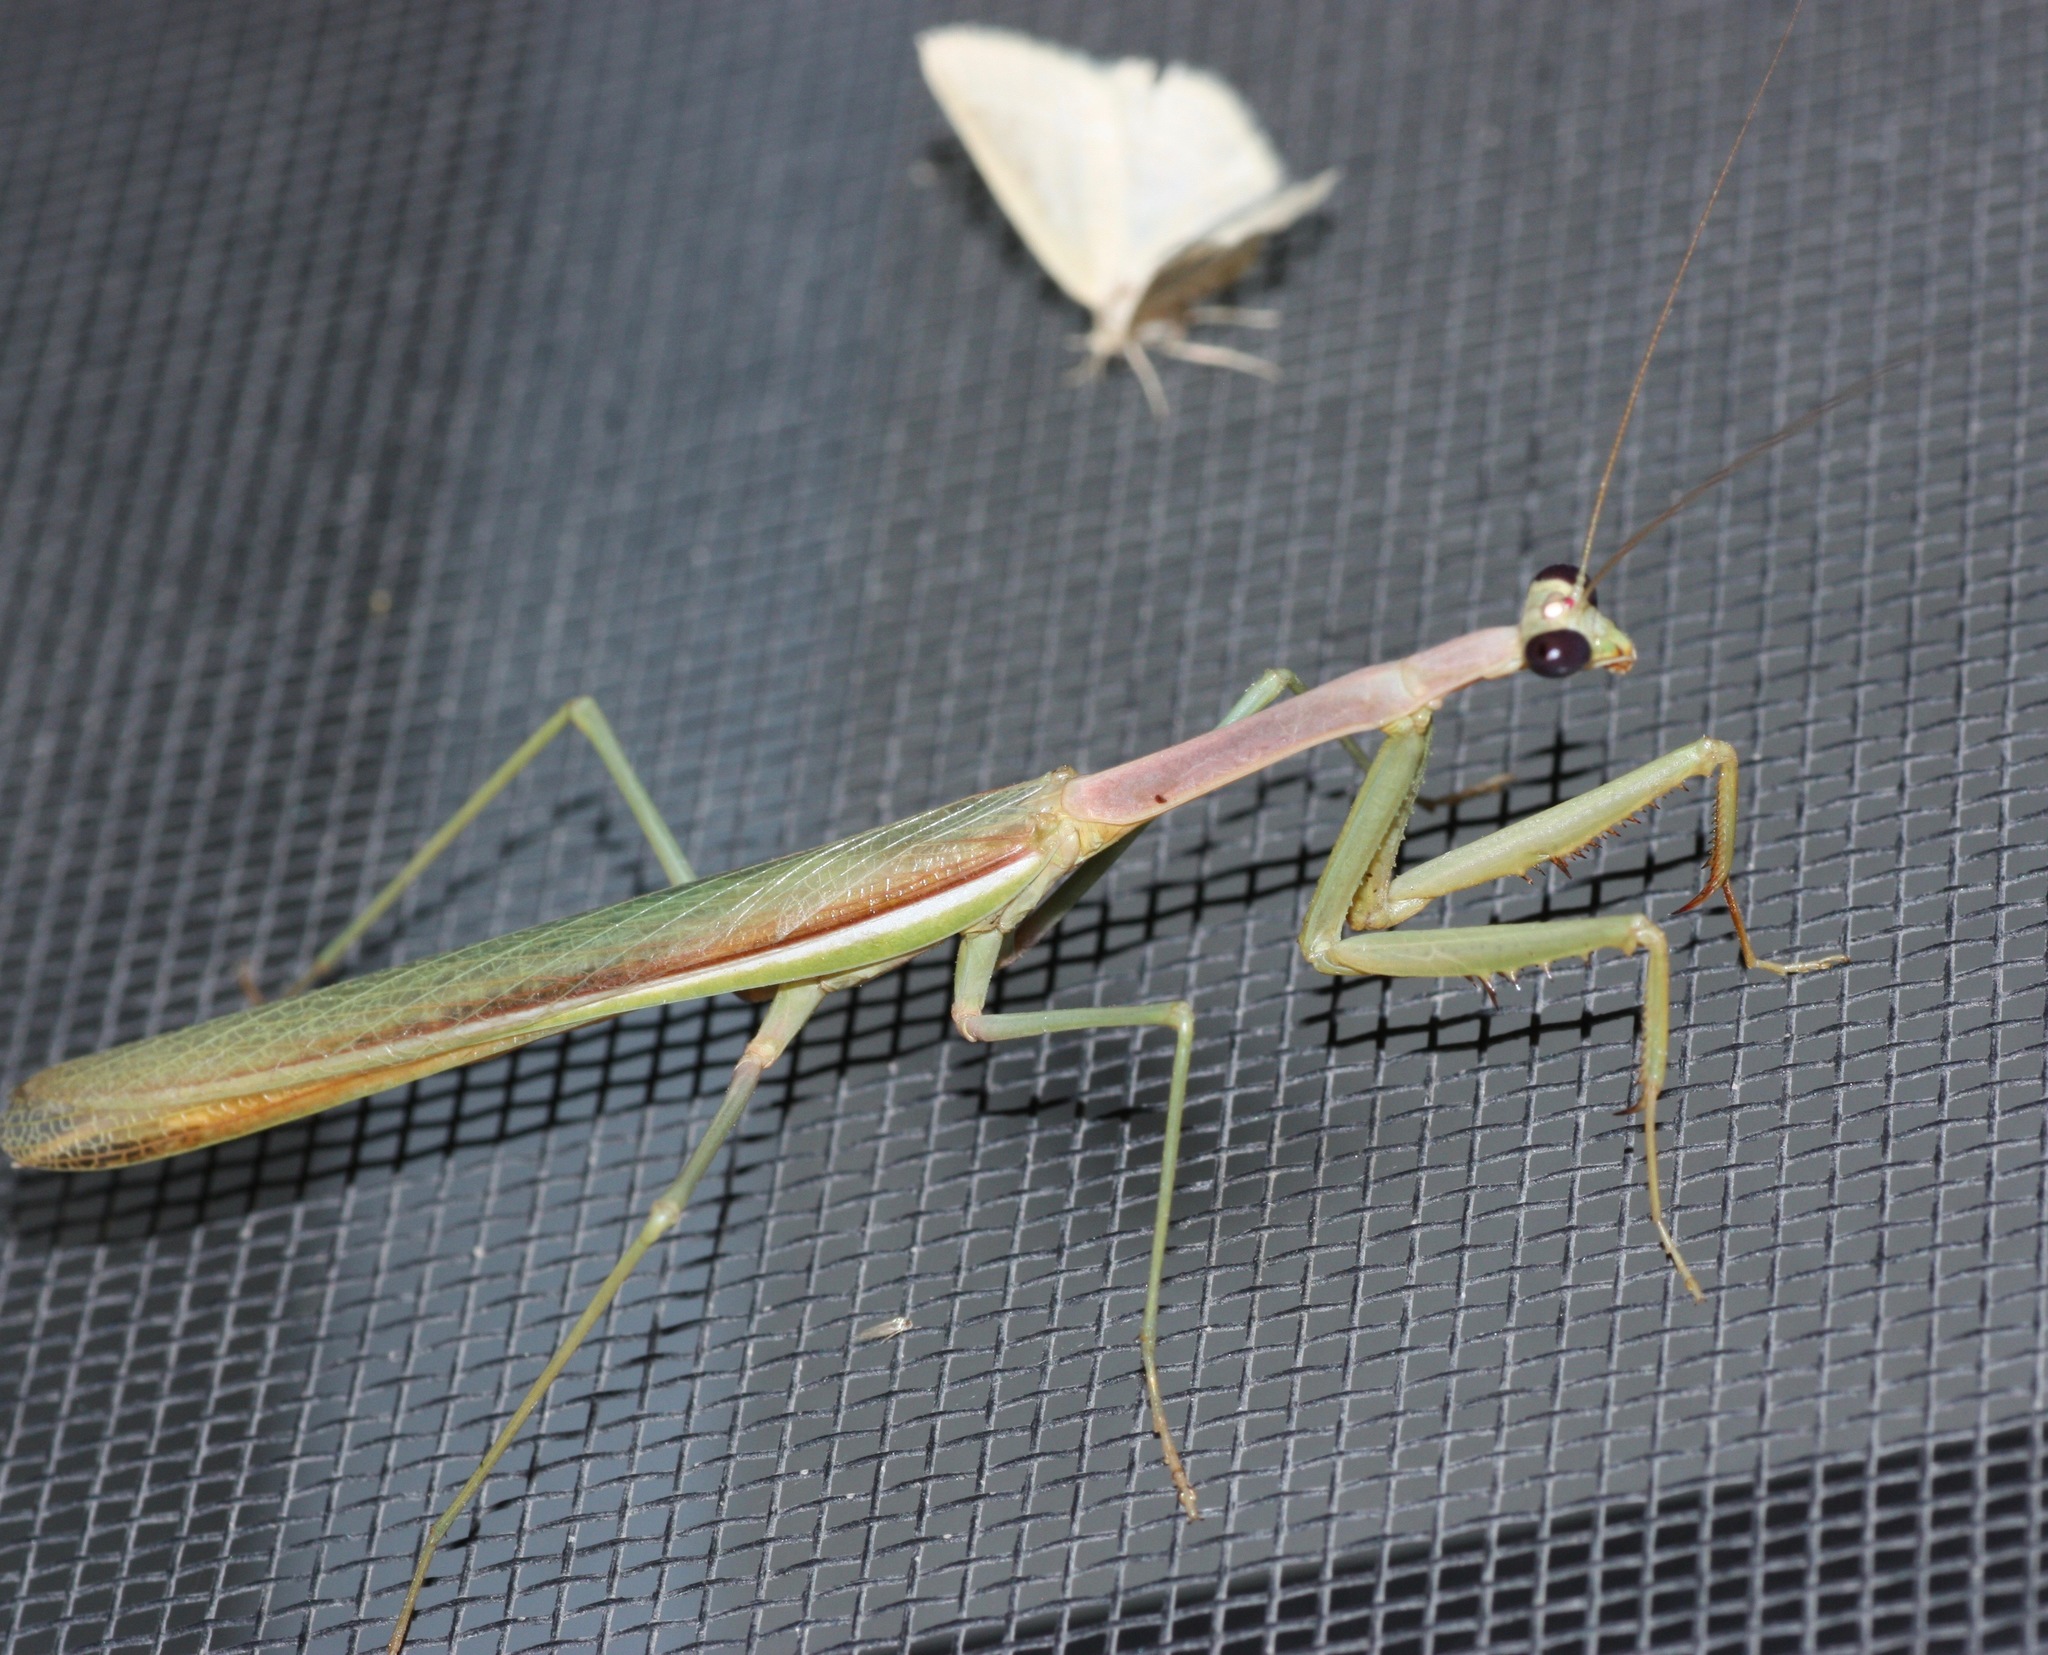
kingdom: Animalia
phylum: Arthropoda
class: Insecta
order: Mantodea
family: Mantidae
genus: Stagmomantis
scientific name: Stagmomantis gracilipes
